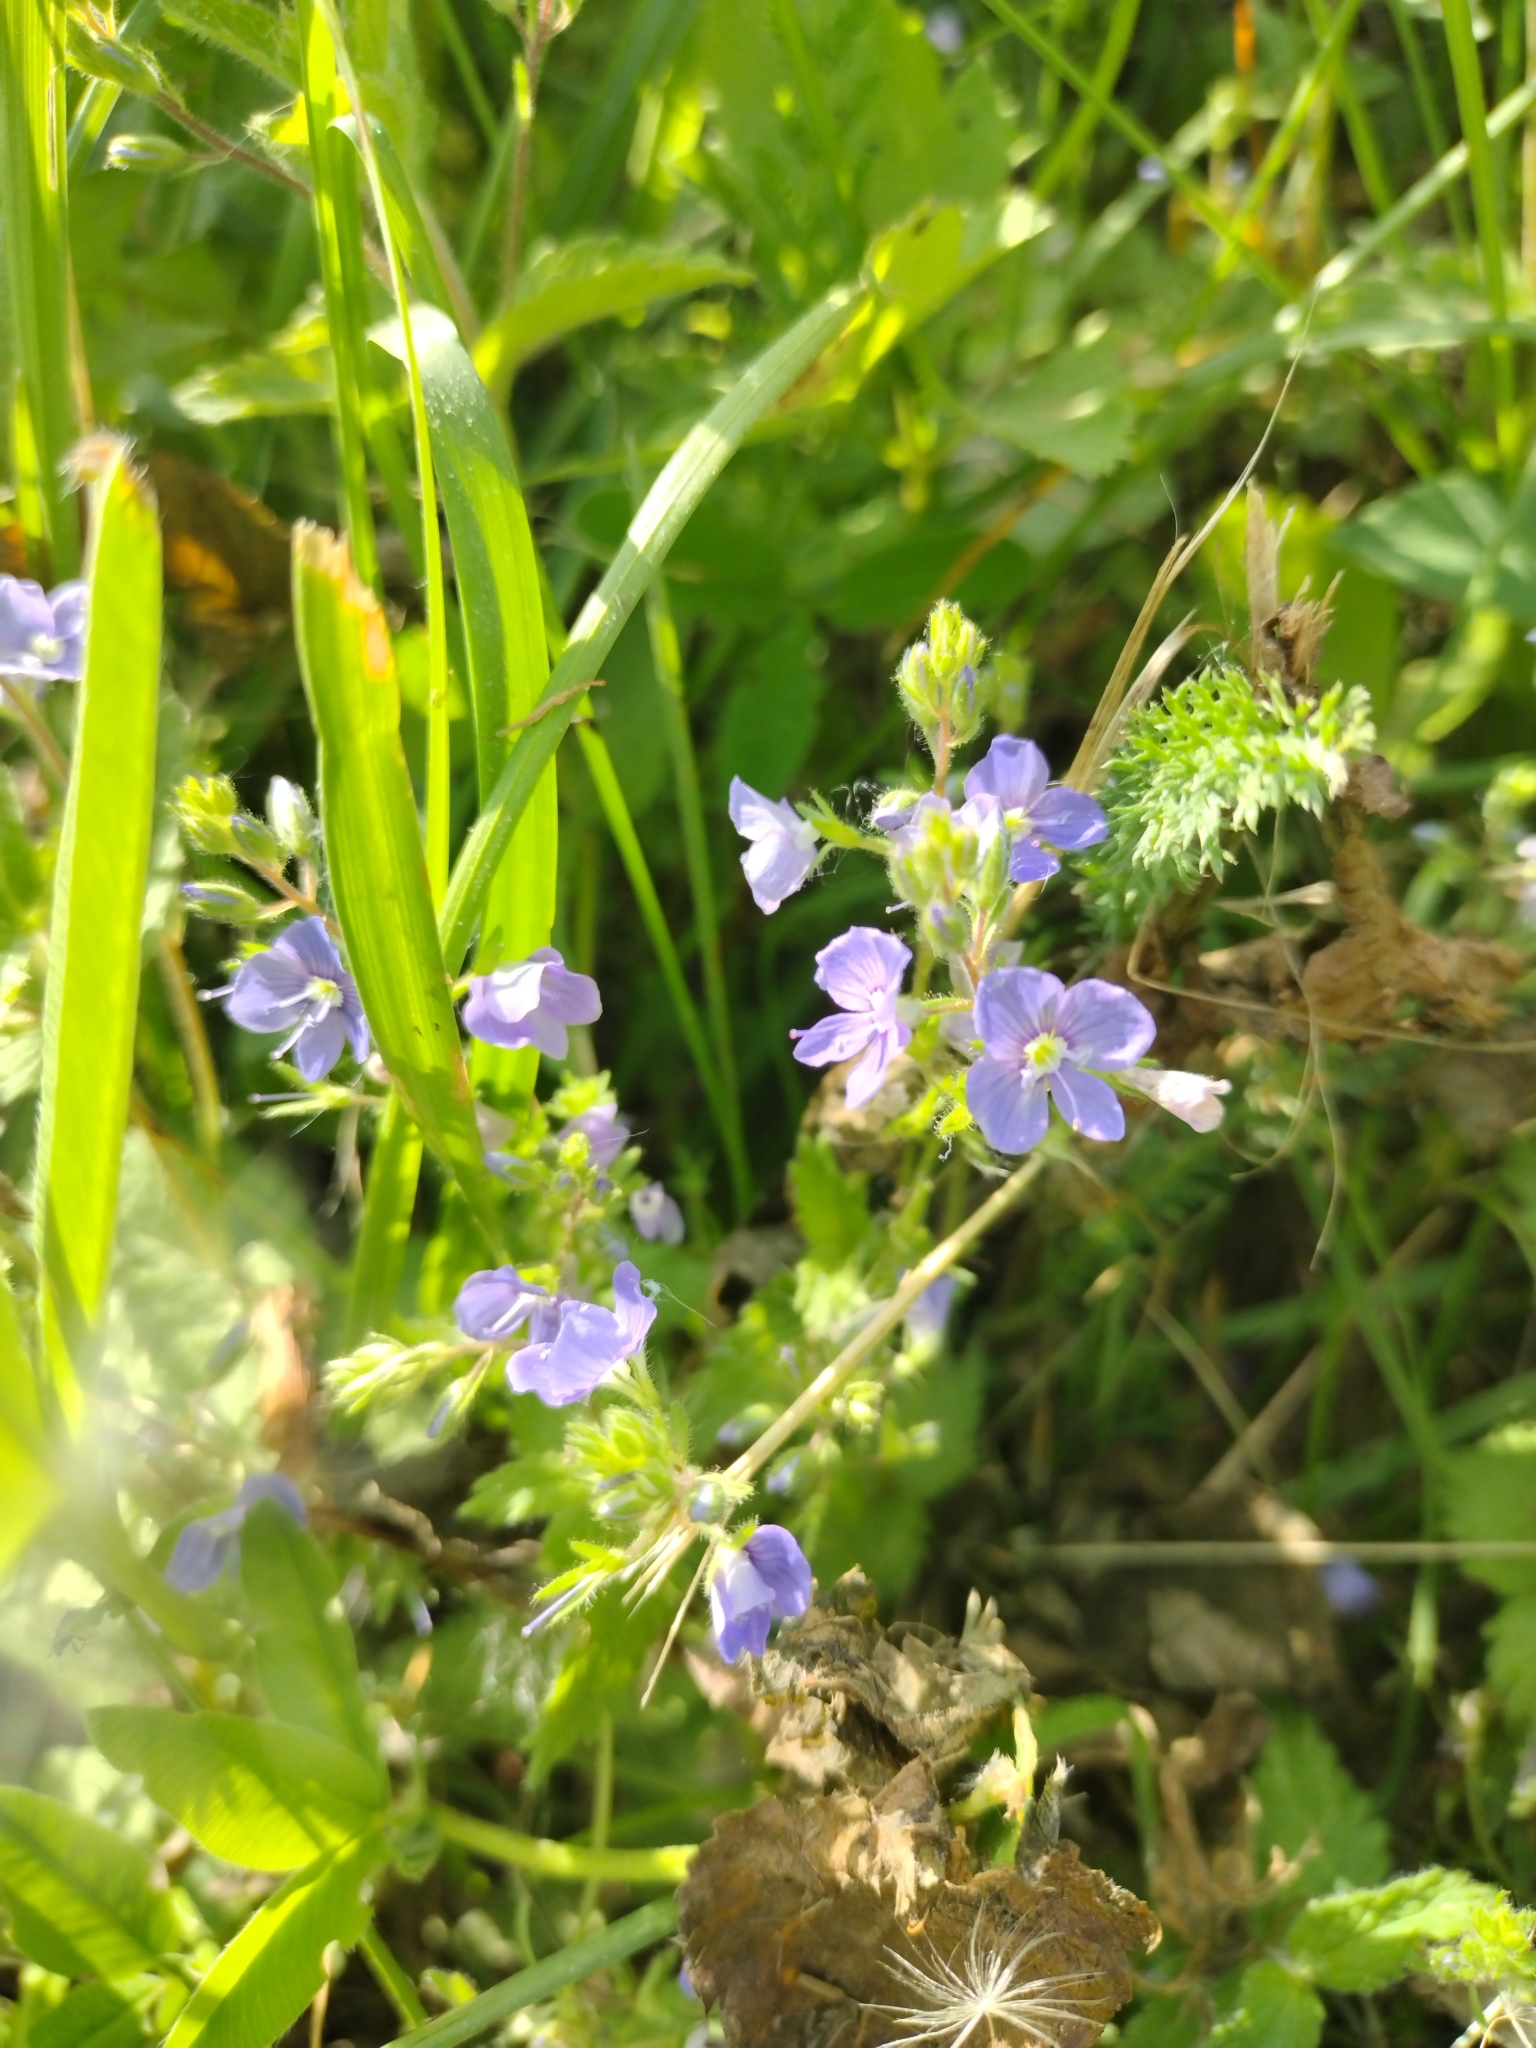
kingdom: Plantae
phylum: Tracheophyta
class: Magnoliopsida
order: Lamiales
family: Plantaginaceae
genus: Veronica
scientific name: Veronica chamaedrys
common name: Germander speedwell
